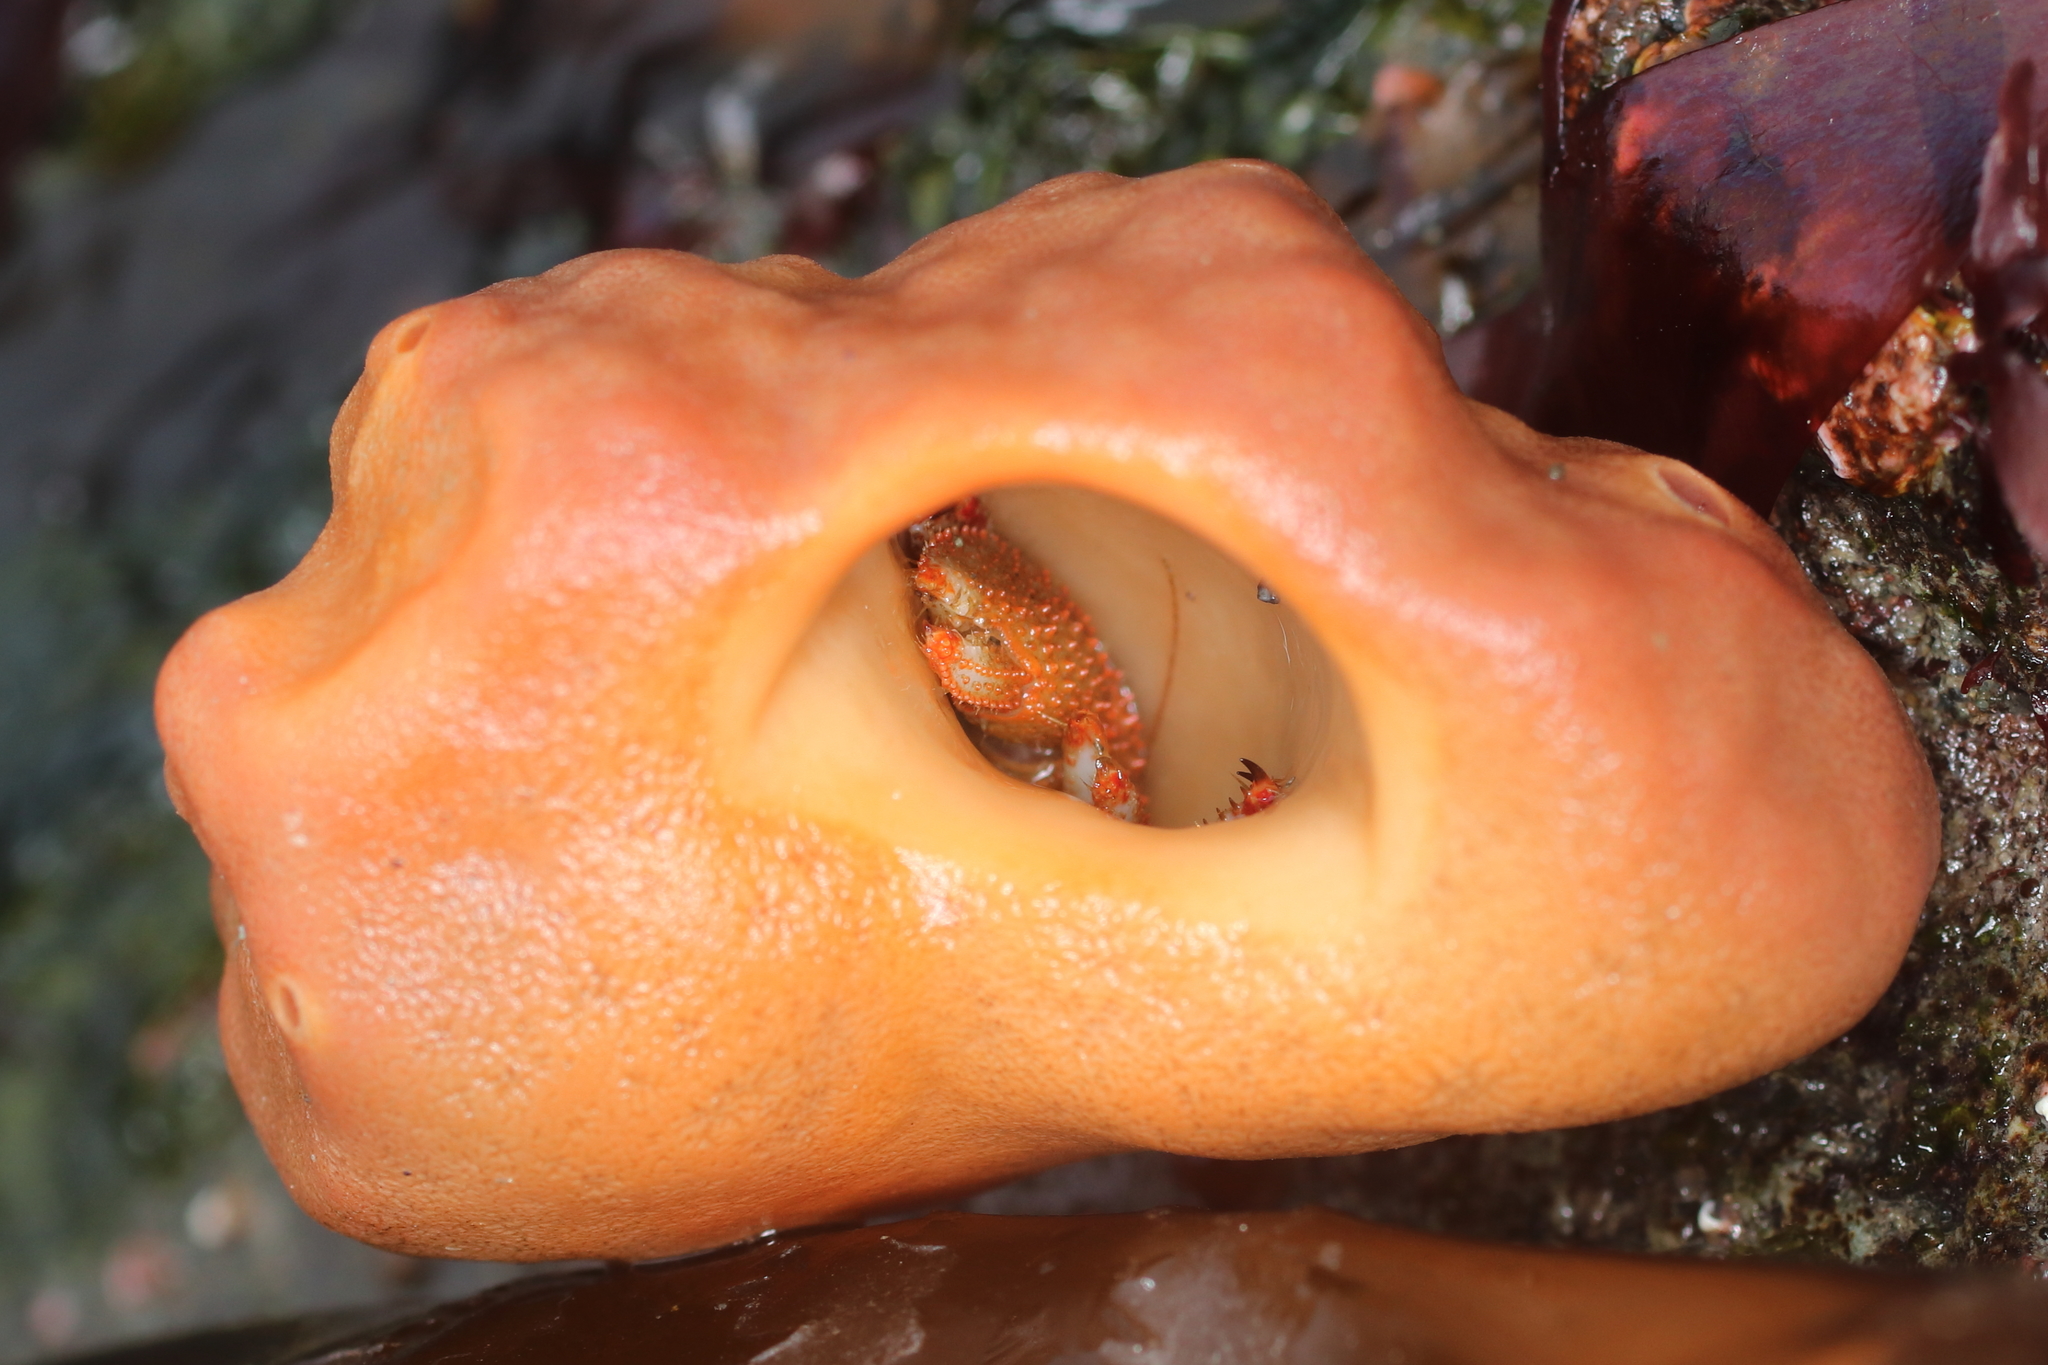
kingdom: Animalia
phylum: Porifera
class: Demospongiae
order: Suberitida
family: Suberitidae
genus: Suberites
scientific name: Suberites latus
